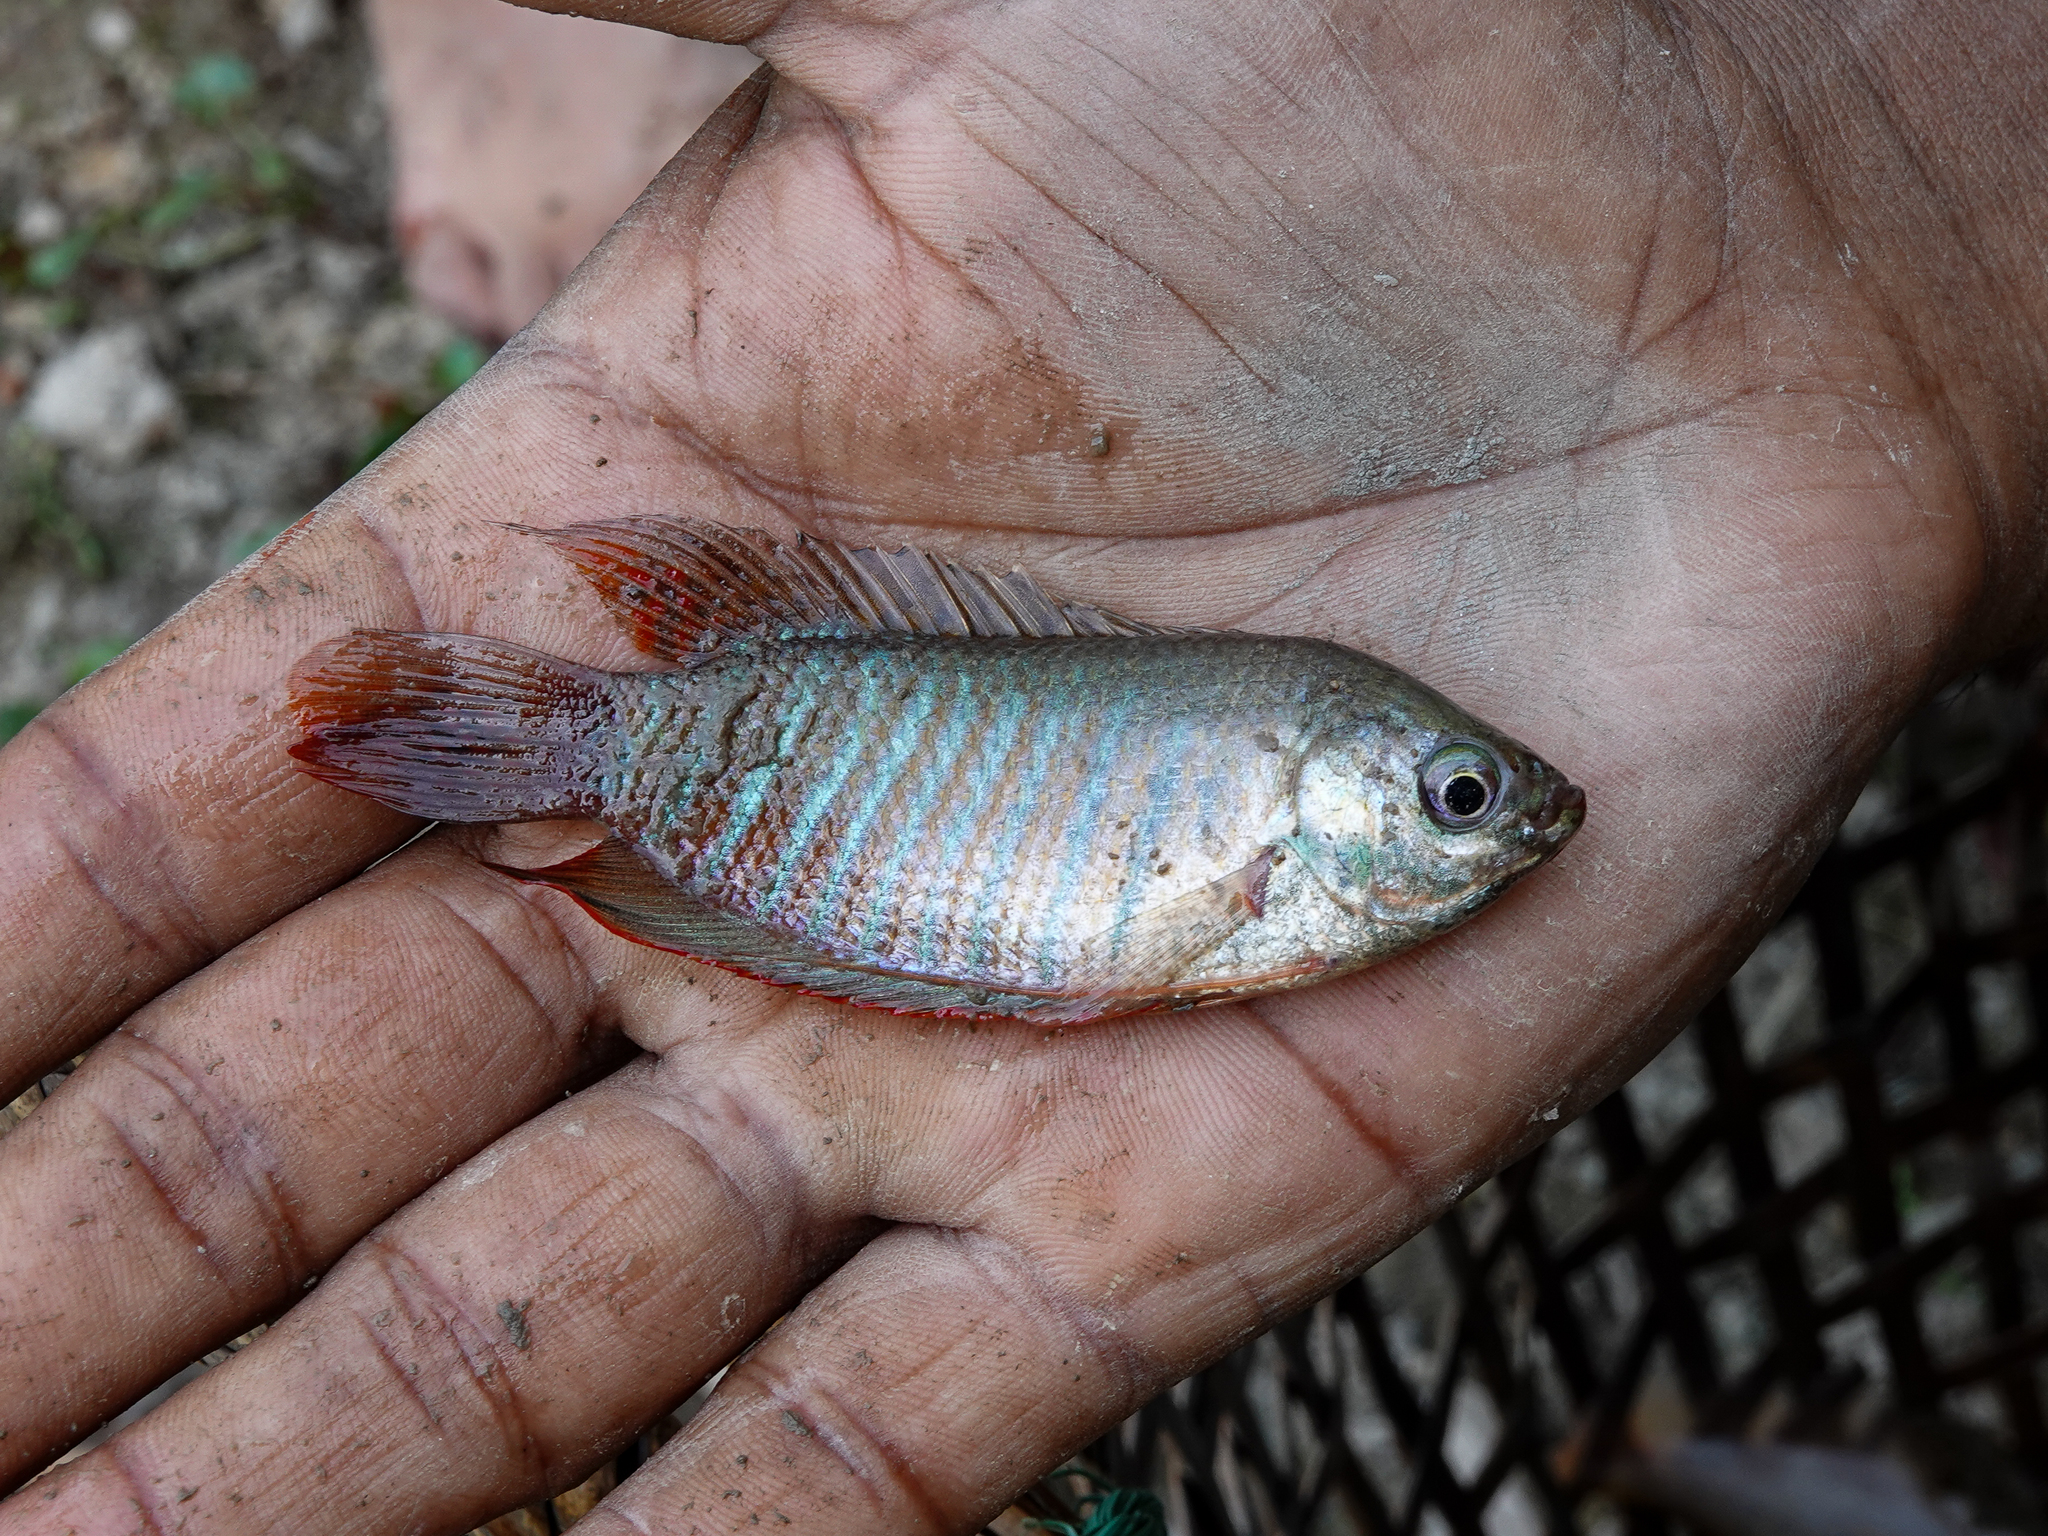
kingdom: Animalia
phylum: Chordata
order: Perciformes
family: Osphronemidae
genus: Trichogaster
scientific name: Trichogaster fasciata
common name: Banded gourami
